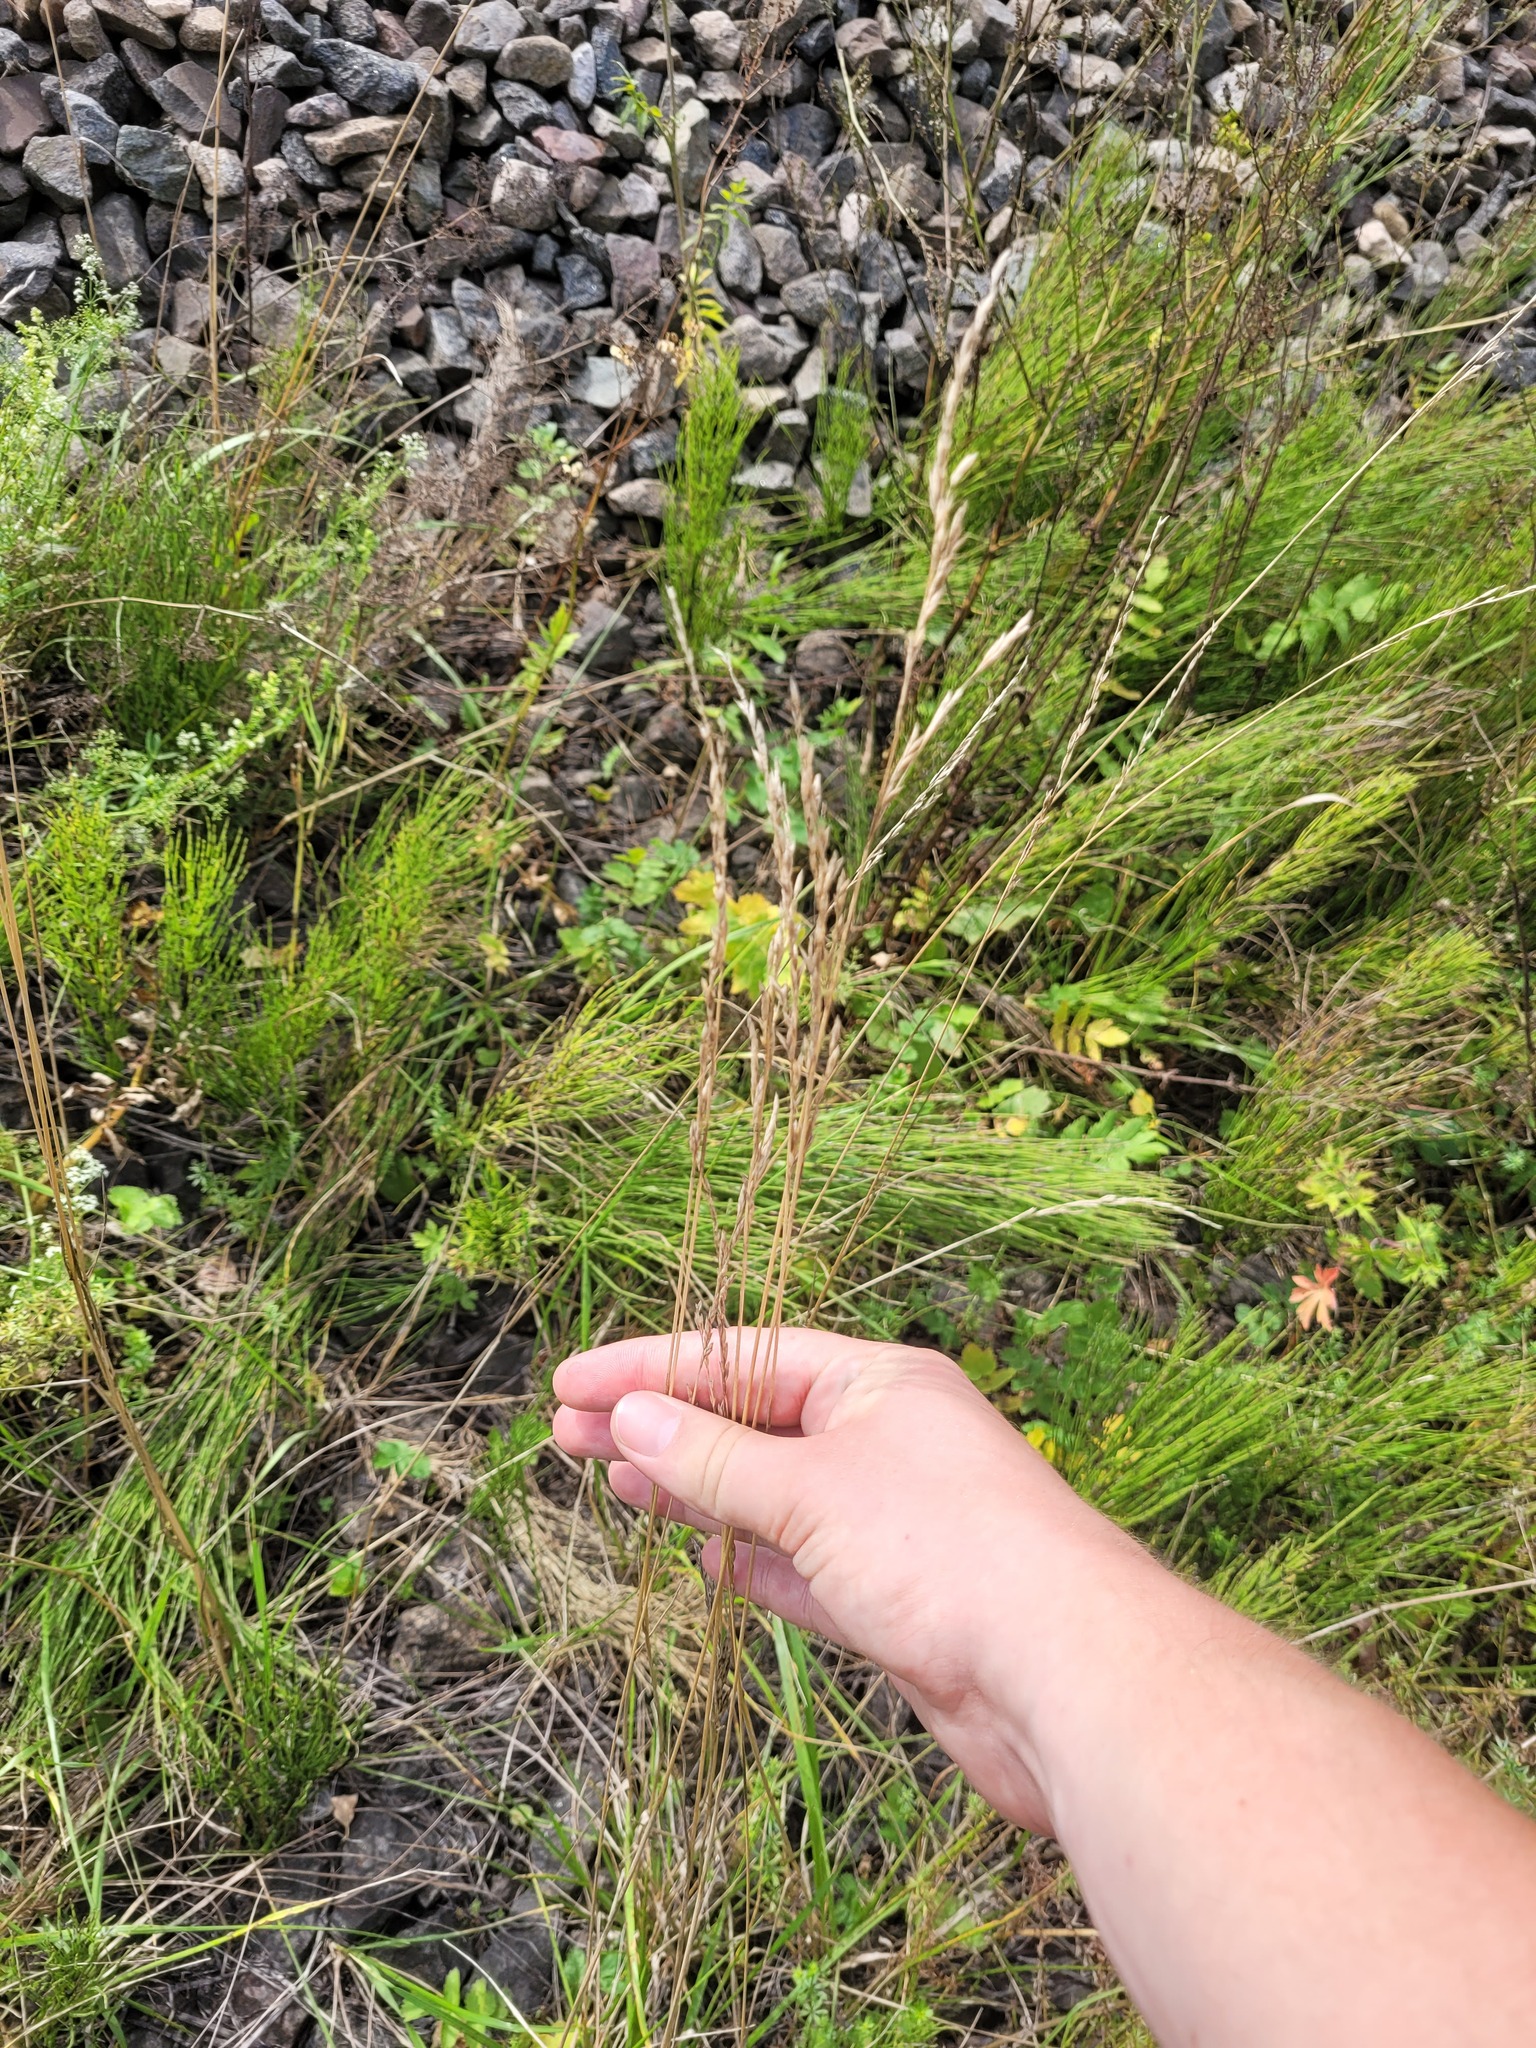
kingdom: Plantae
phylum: Tracheophyta
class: Liliopsida
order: Poales
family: Poaceae
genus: Lolium
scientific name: Lolium pratense
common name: Dover grass
